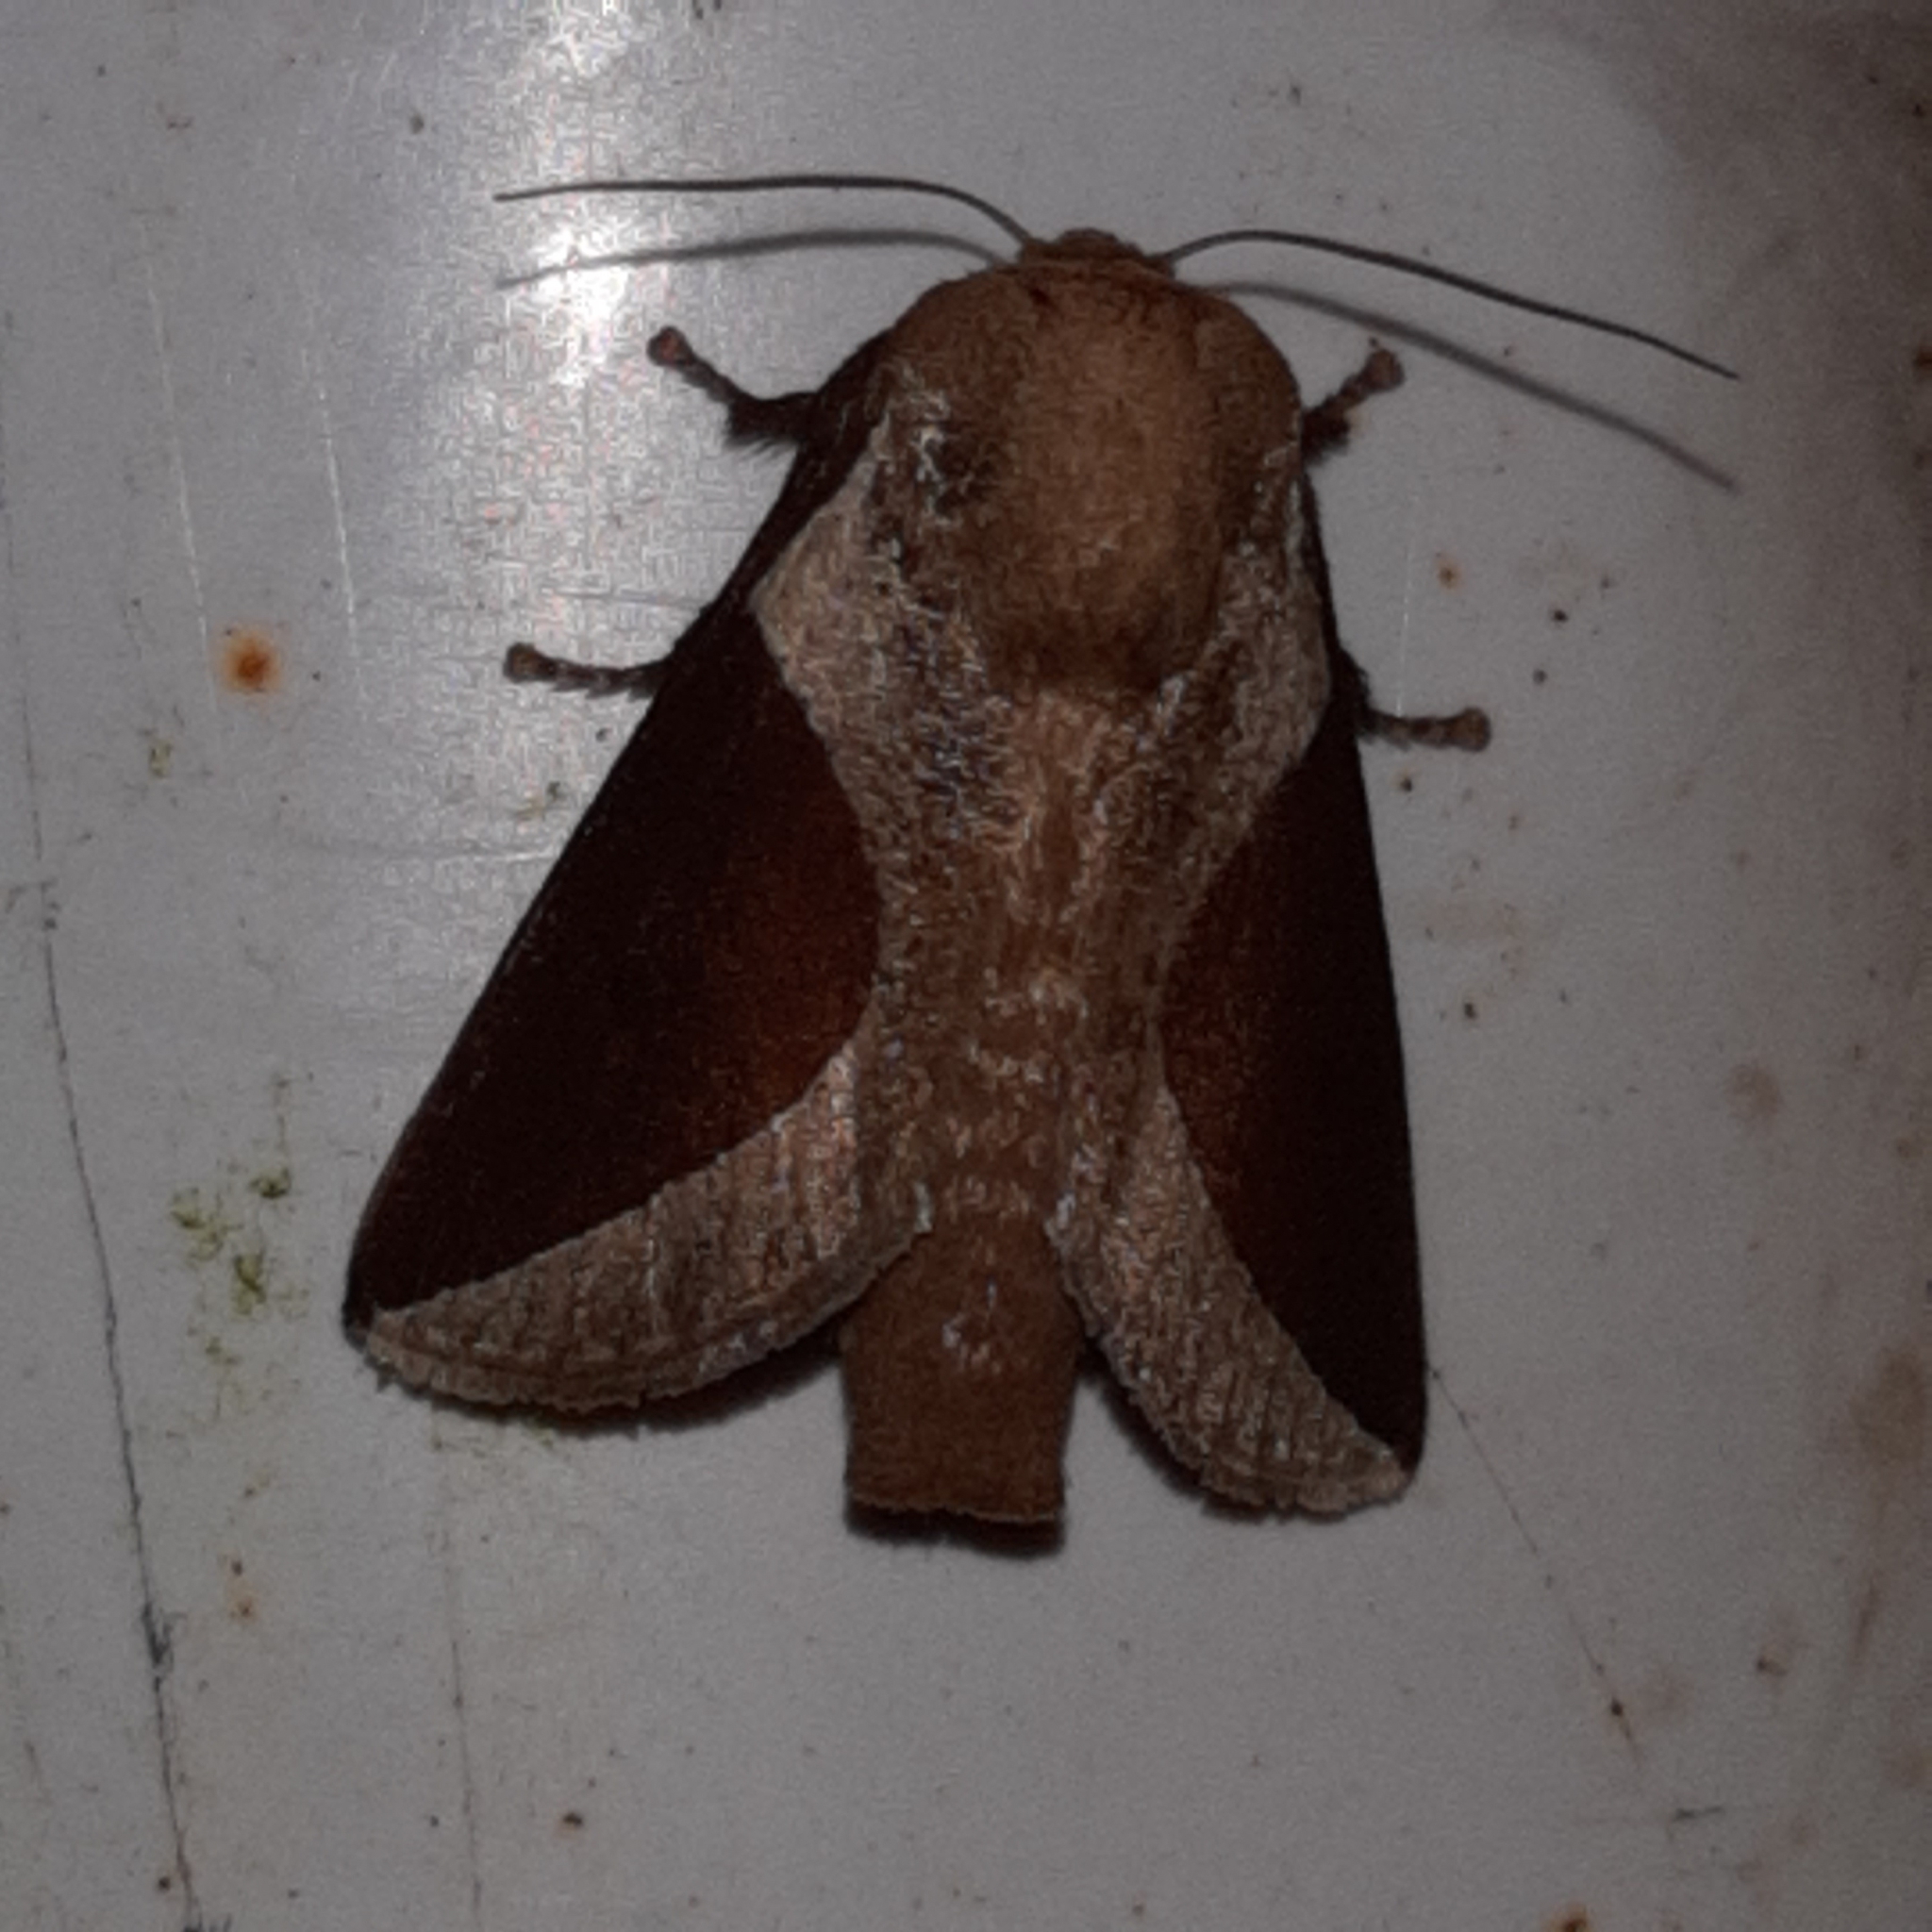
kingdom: Animalia
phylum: Arthropoda
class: Insecta
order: Lepidoptera
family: Limacodidae
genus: Prolimacodes
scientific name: Prolimacodes badia
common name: Skiff moth
